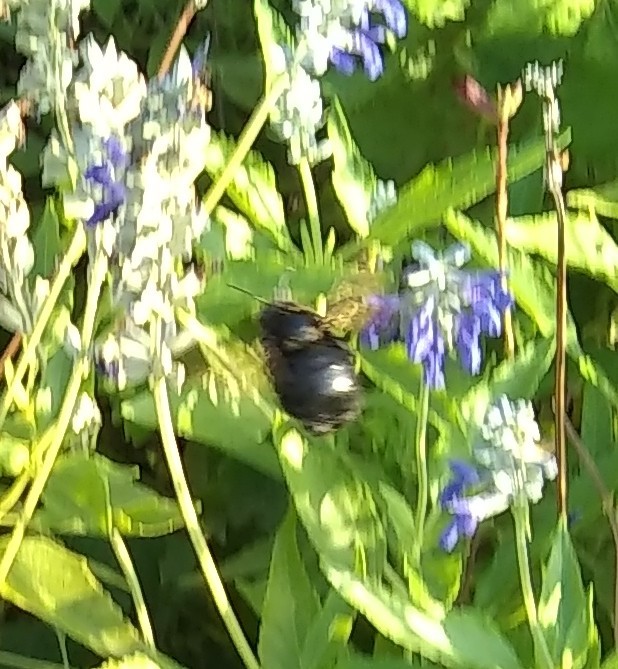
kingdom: Animalia
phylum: Arthropoda
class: Insecta
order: Hymenoptera
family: Apidae
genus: Xylocopa
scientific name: Xylocopa sonorina
